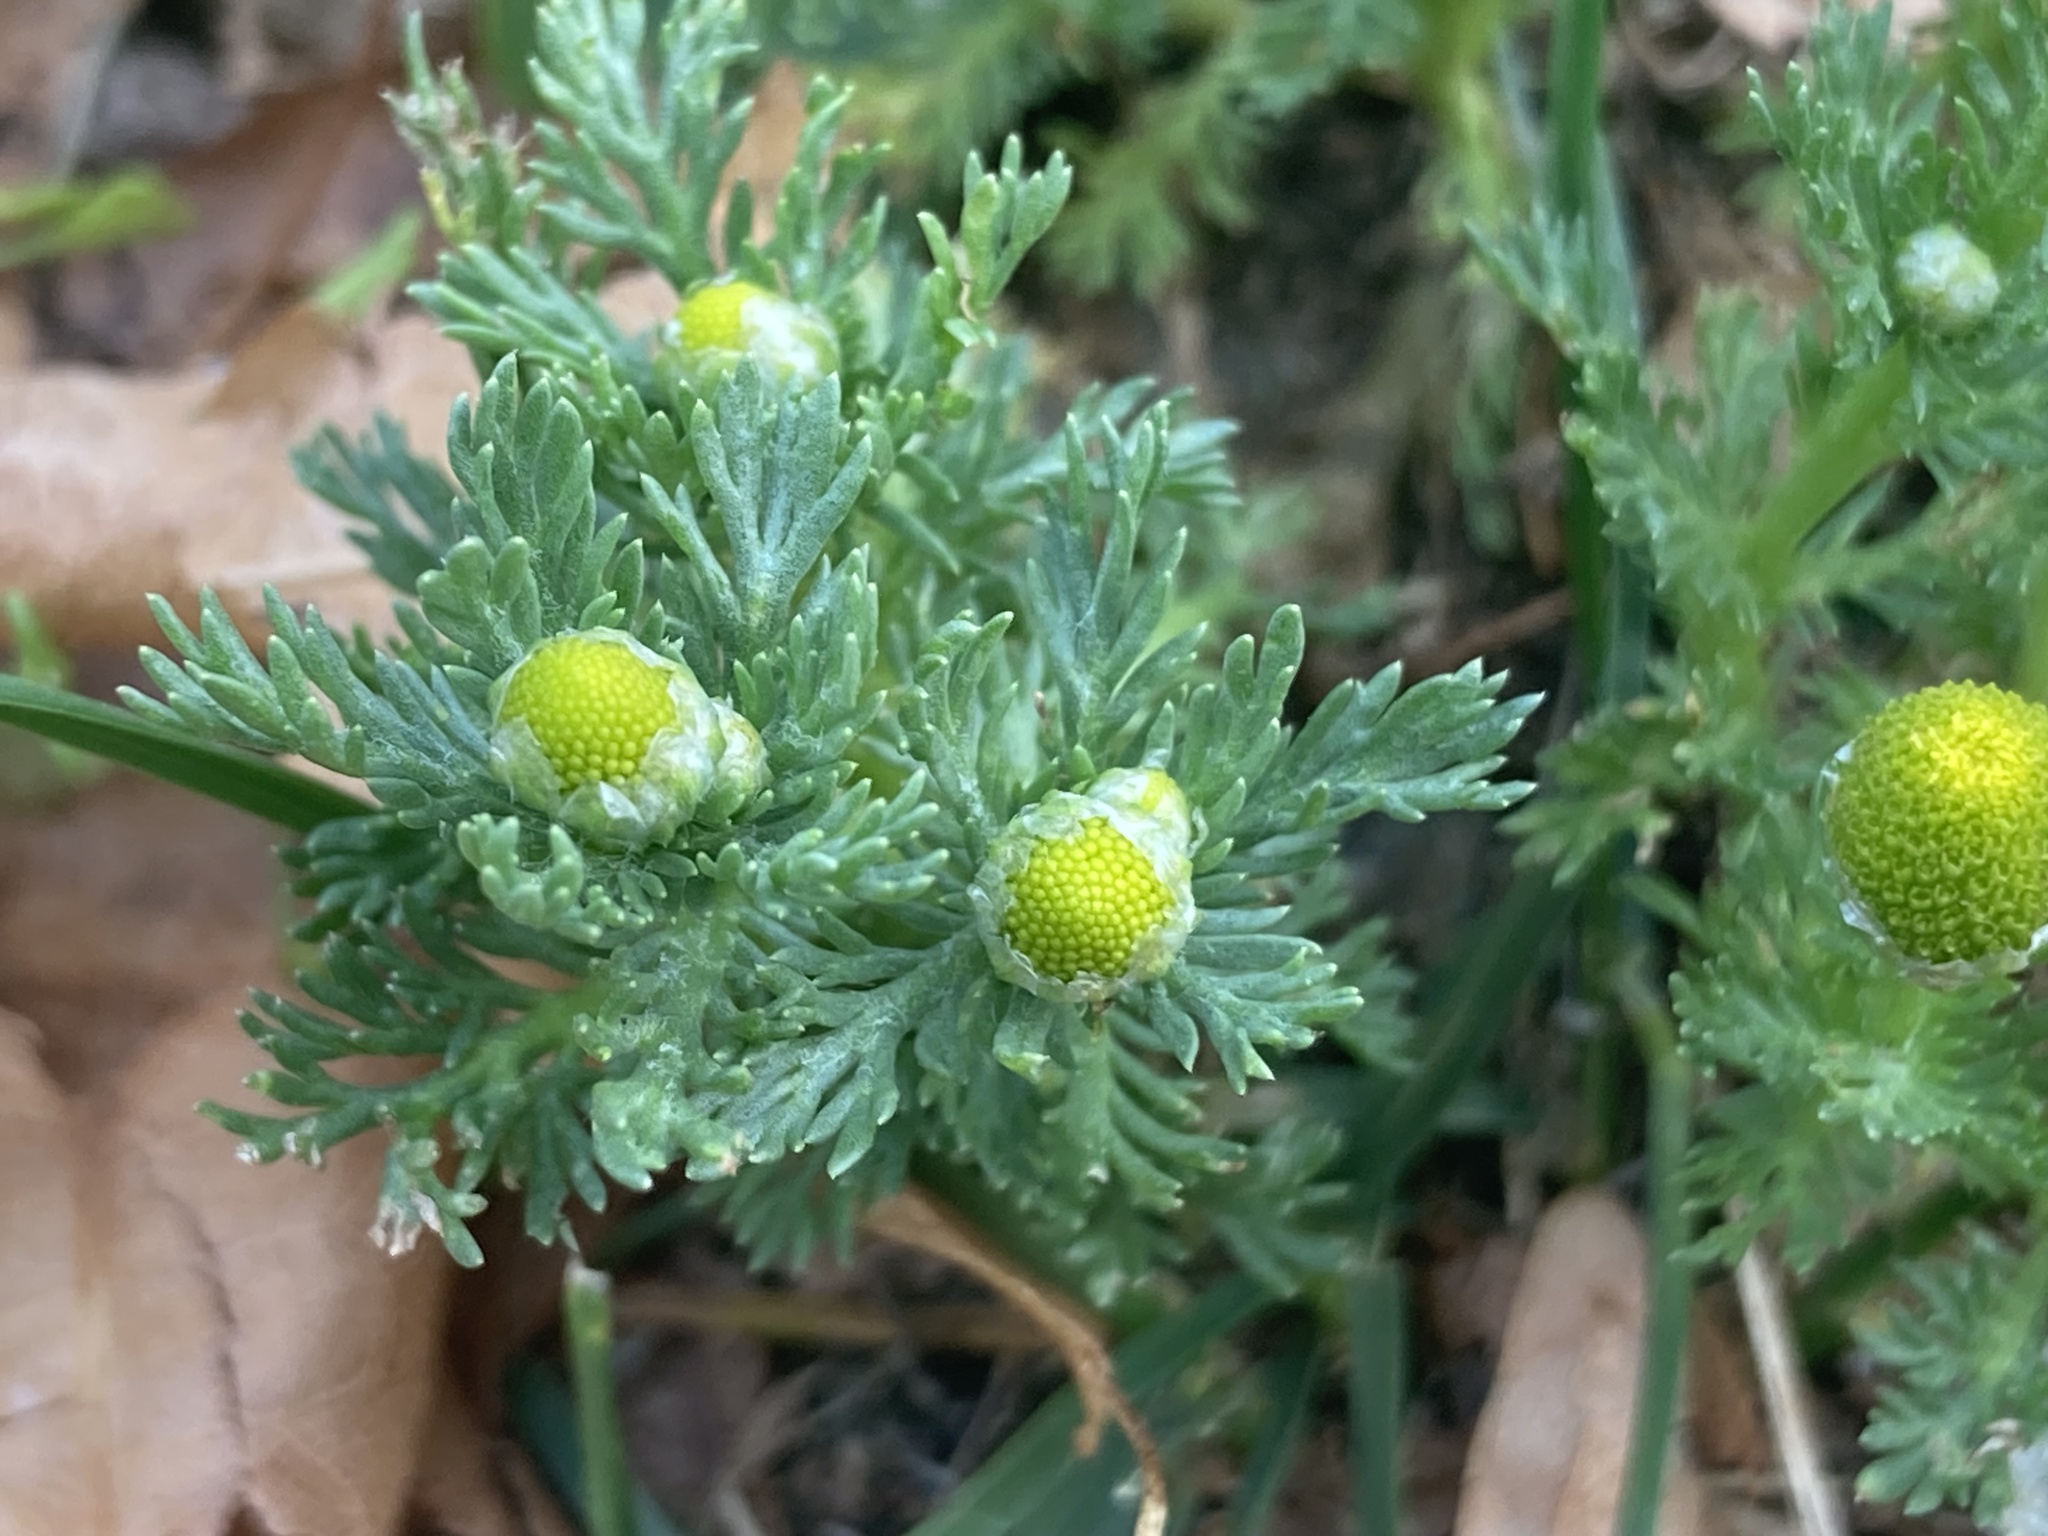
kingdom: Plantae
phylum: Tracheophyta
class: Magnoliopsida
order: Asterales
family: Asteraceae
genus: Matricaria
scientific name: Matricaria discoidea
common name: Disc mayweed
